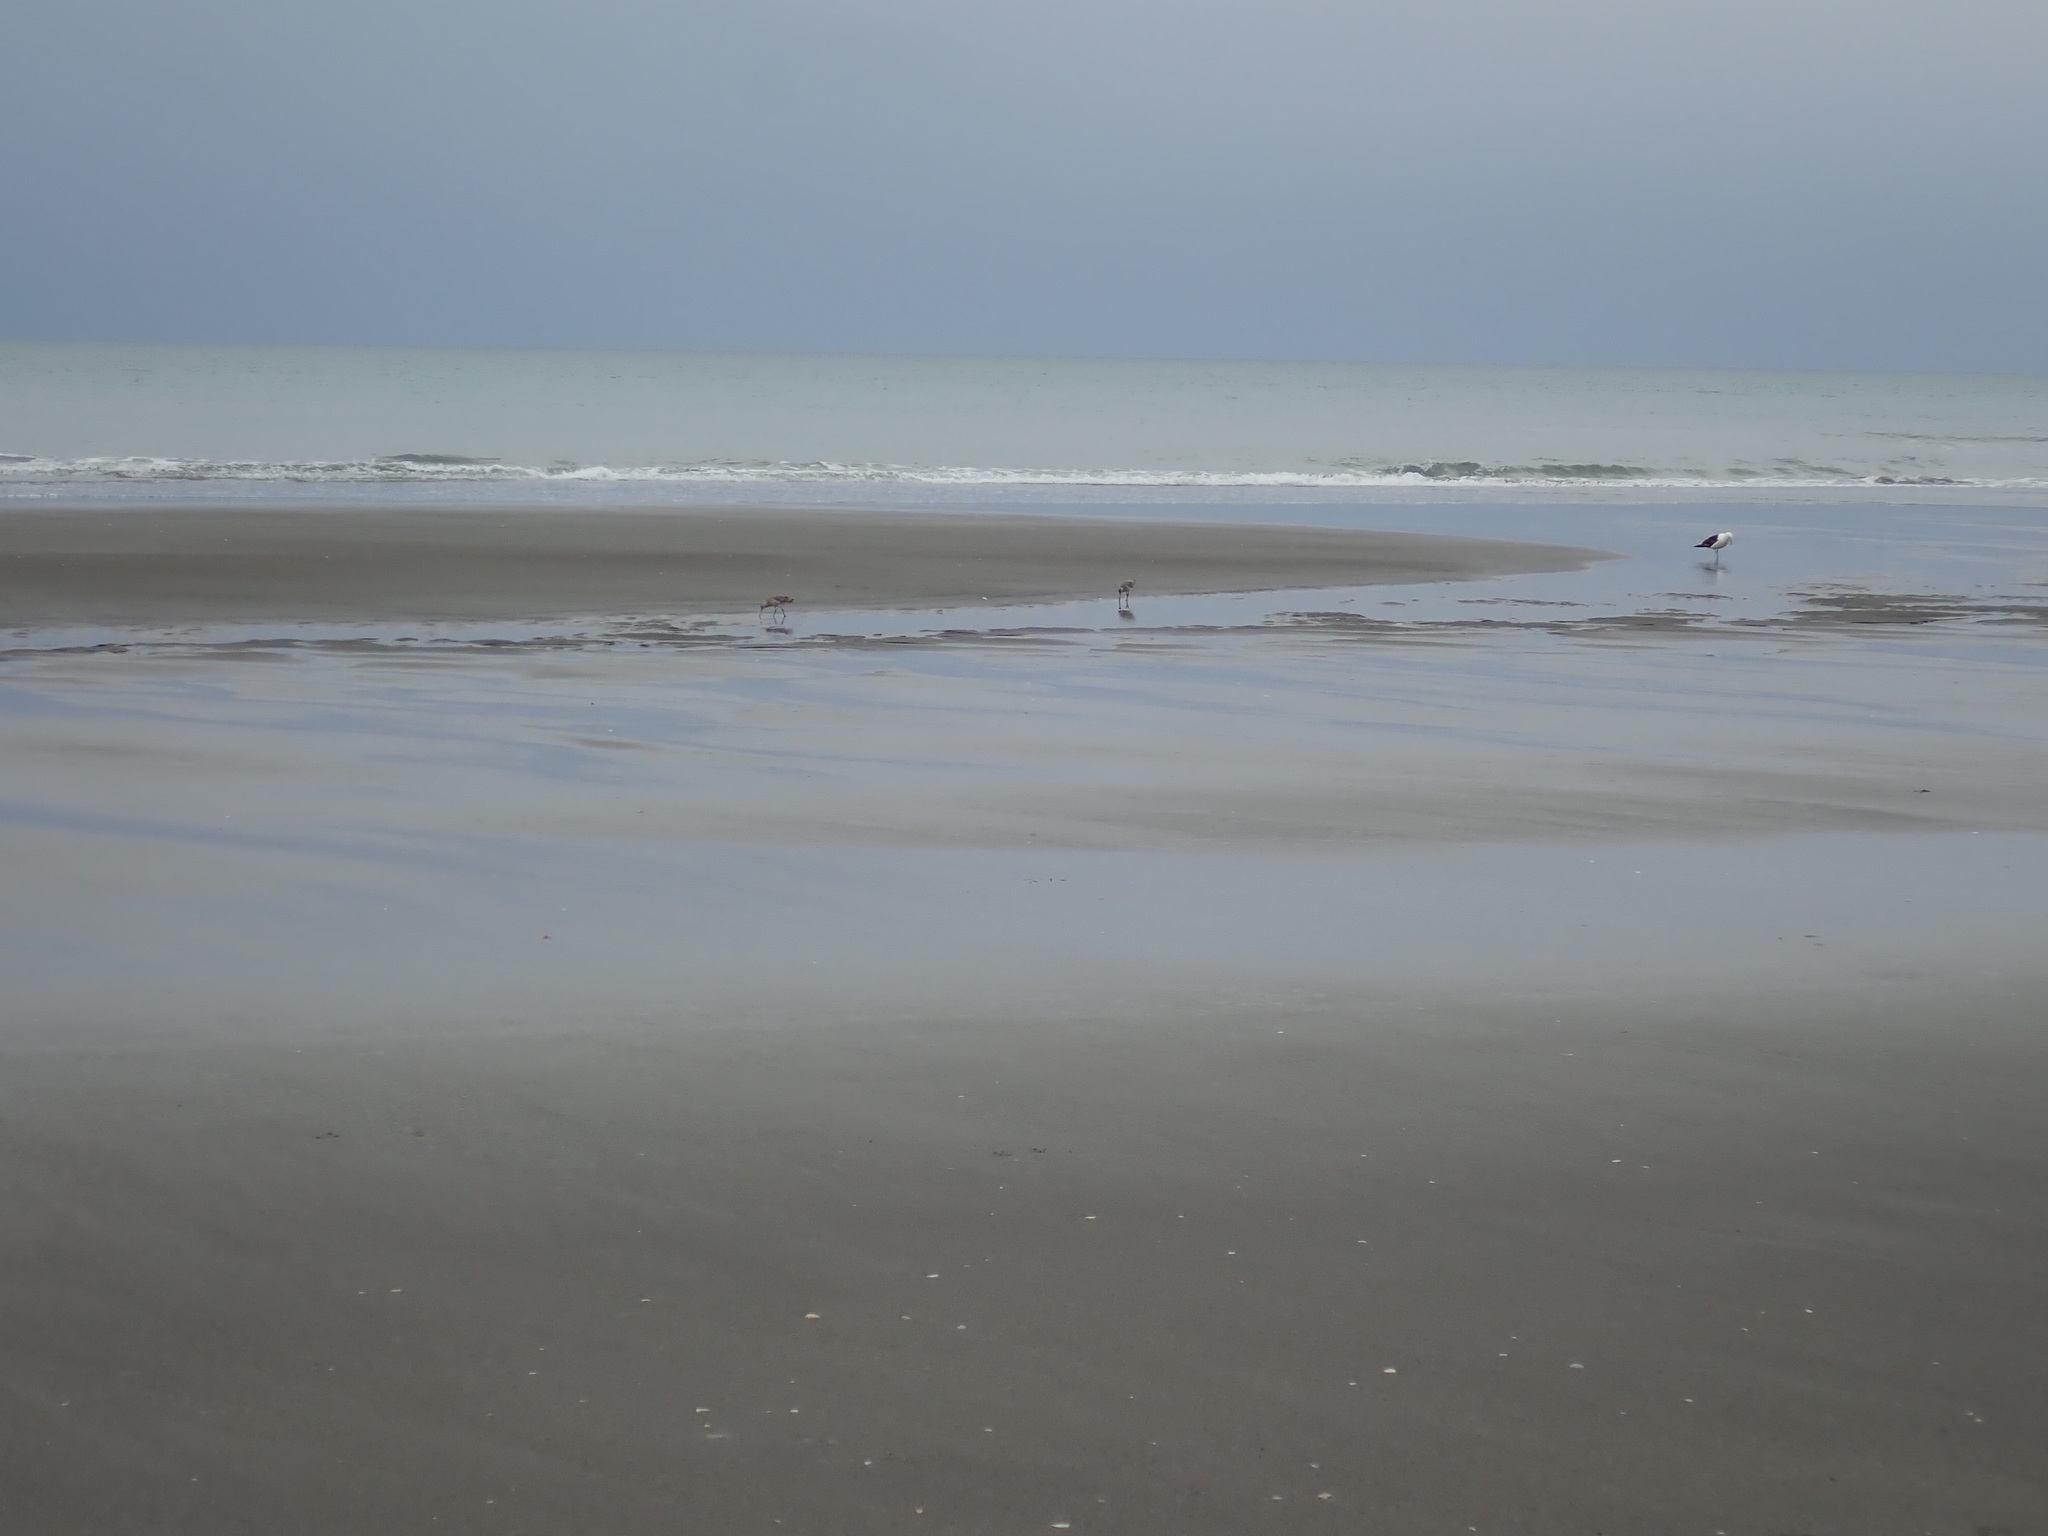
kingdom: Animalia
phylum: Chordata
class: Aves
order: Charadriiformes
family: Scolopacidae
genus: Limosa
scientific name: Limosa lapponica
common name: Bar-tailed godwit
